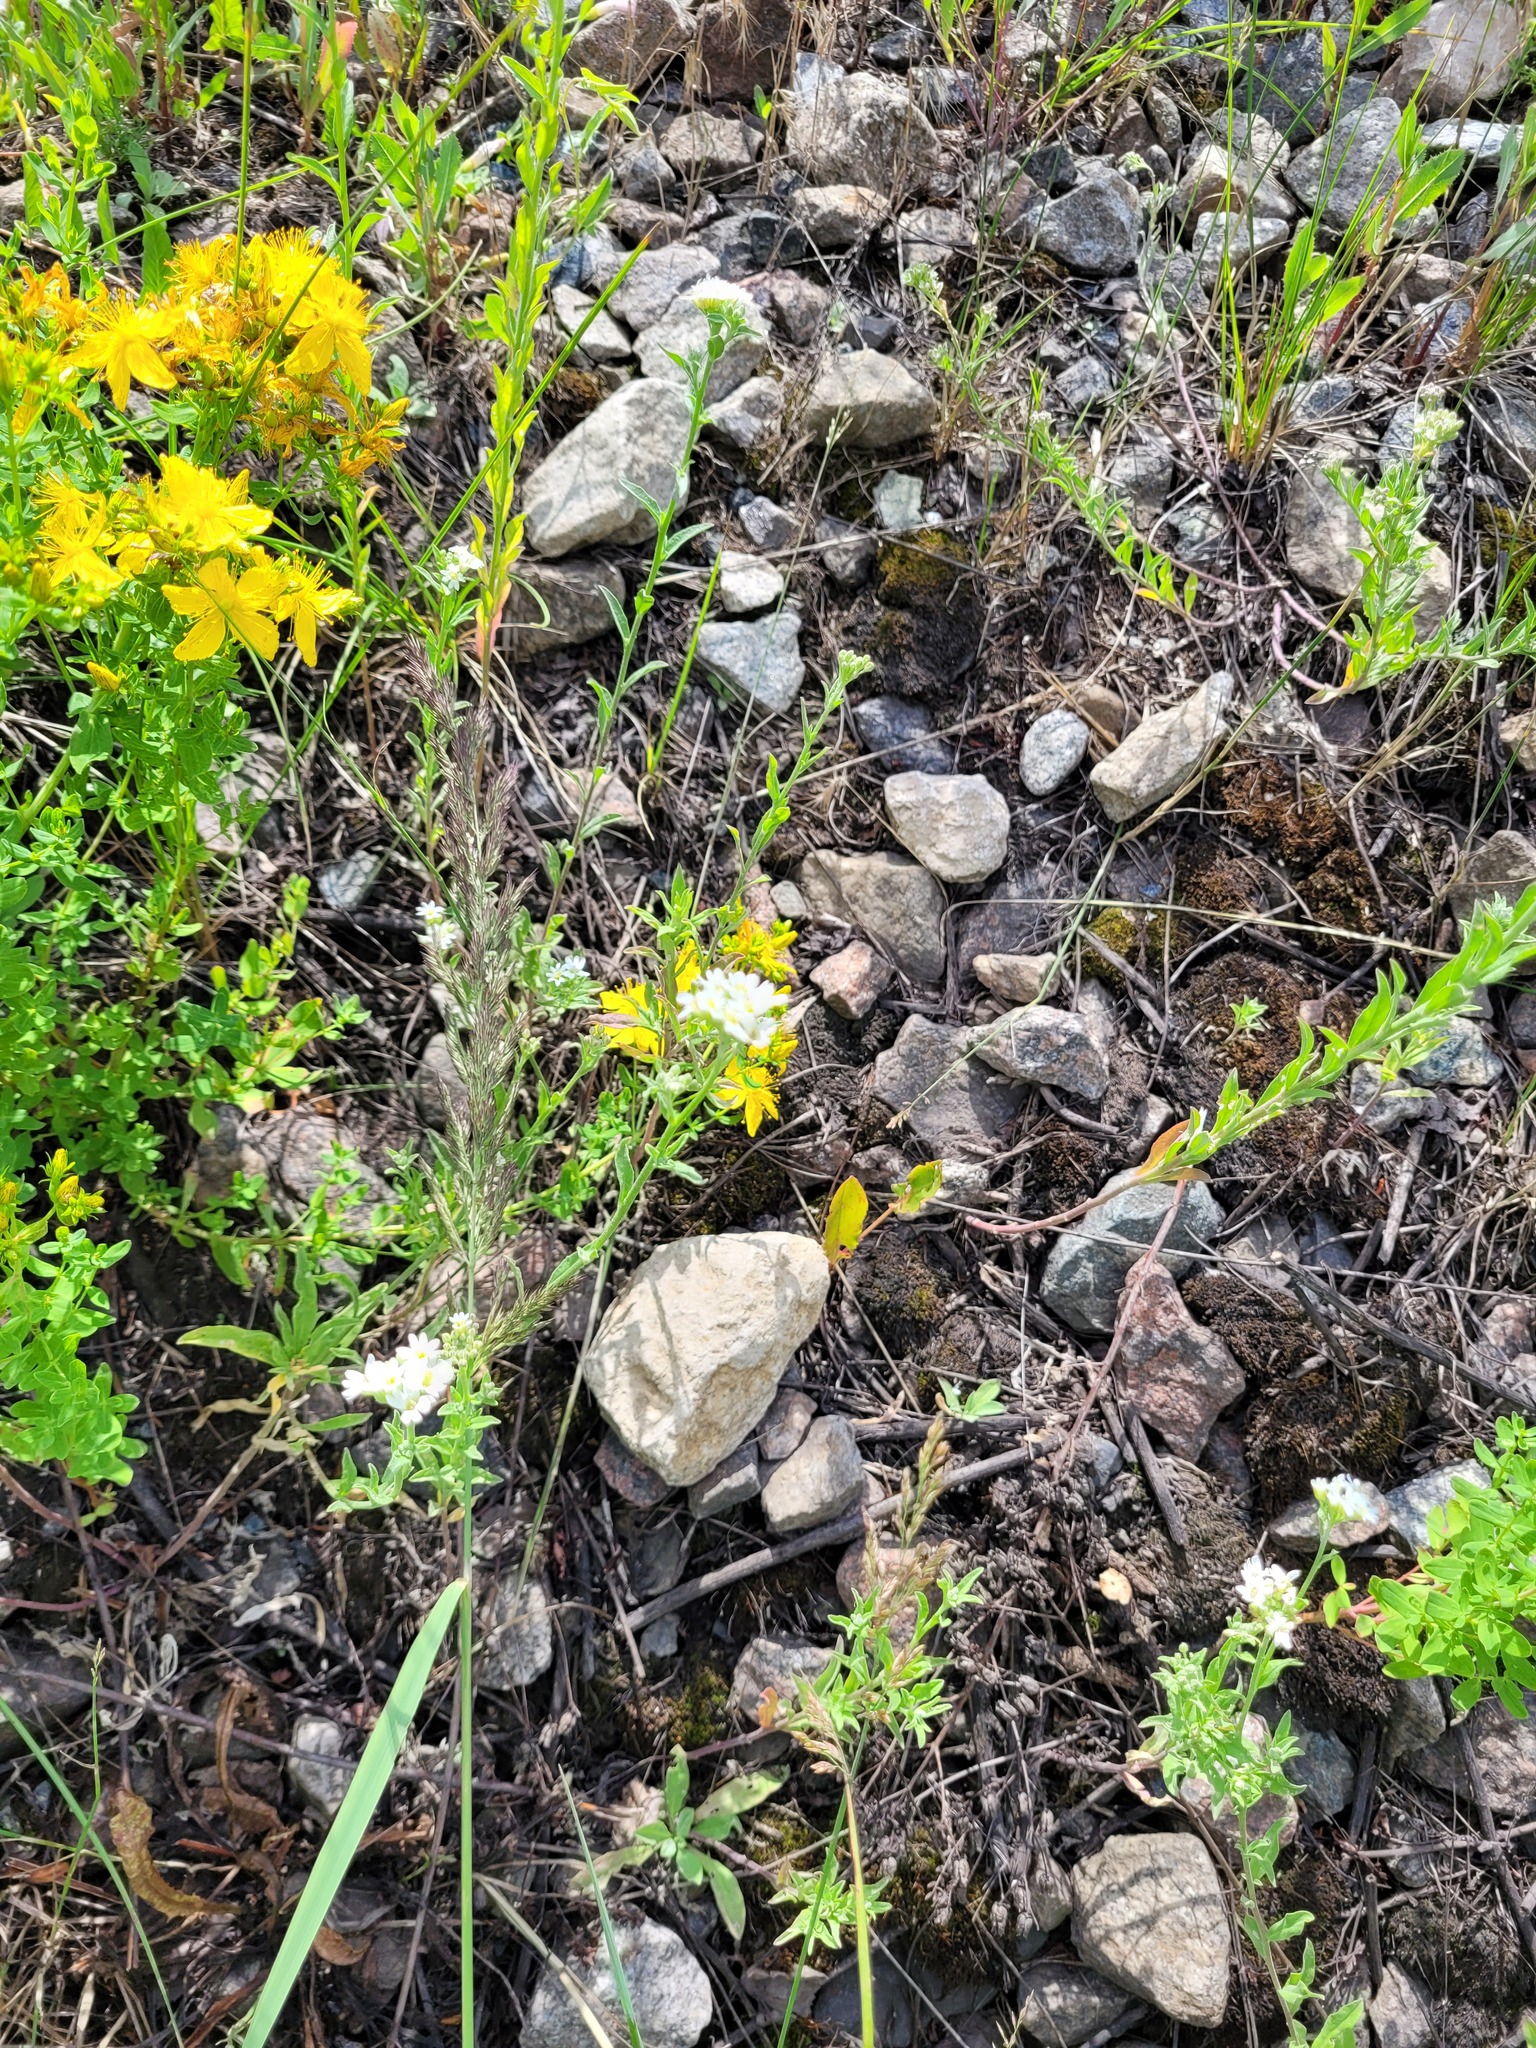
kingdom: Plantae
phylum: Tracheophyta
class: Magnoliopsida
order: Brassicales
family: Brassicaceae
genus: Berteroa
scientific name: Berteroa incana
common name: Hoary alison
